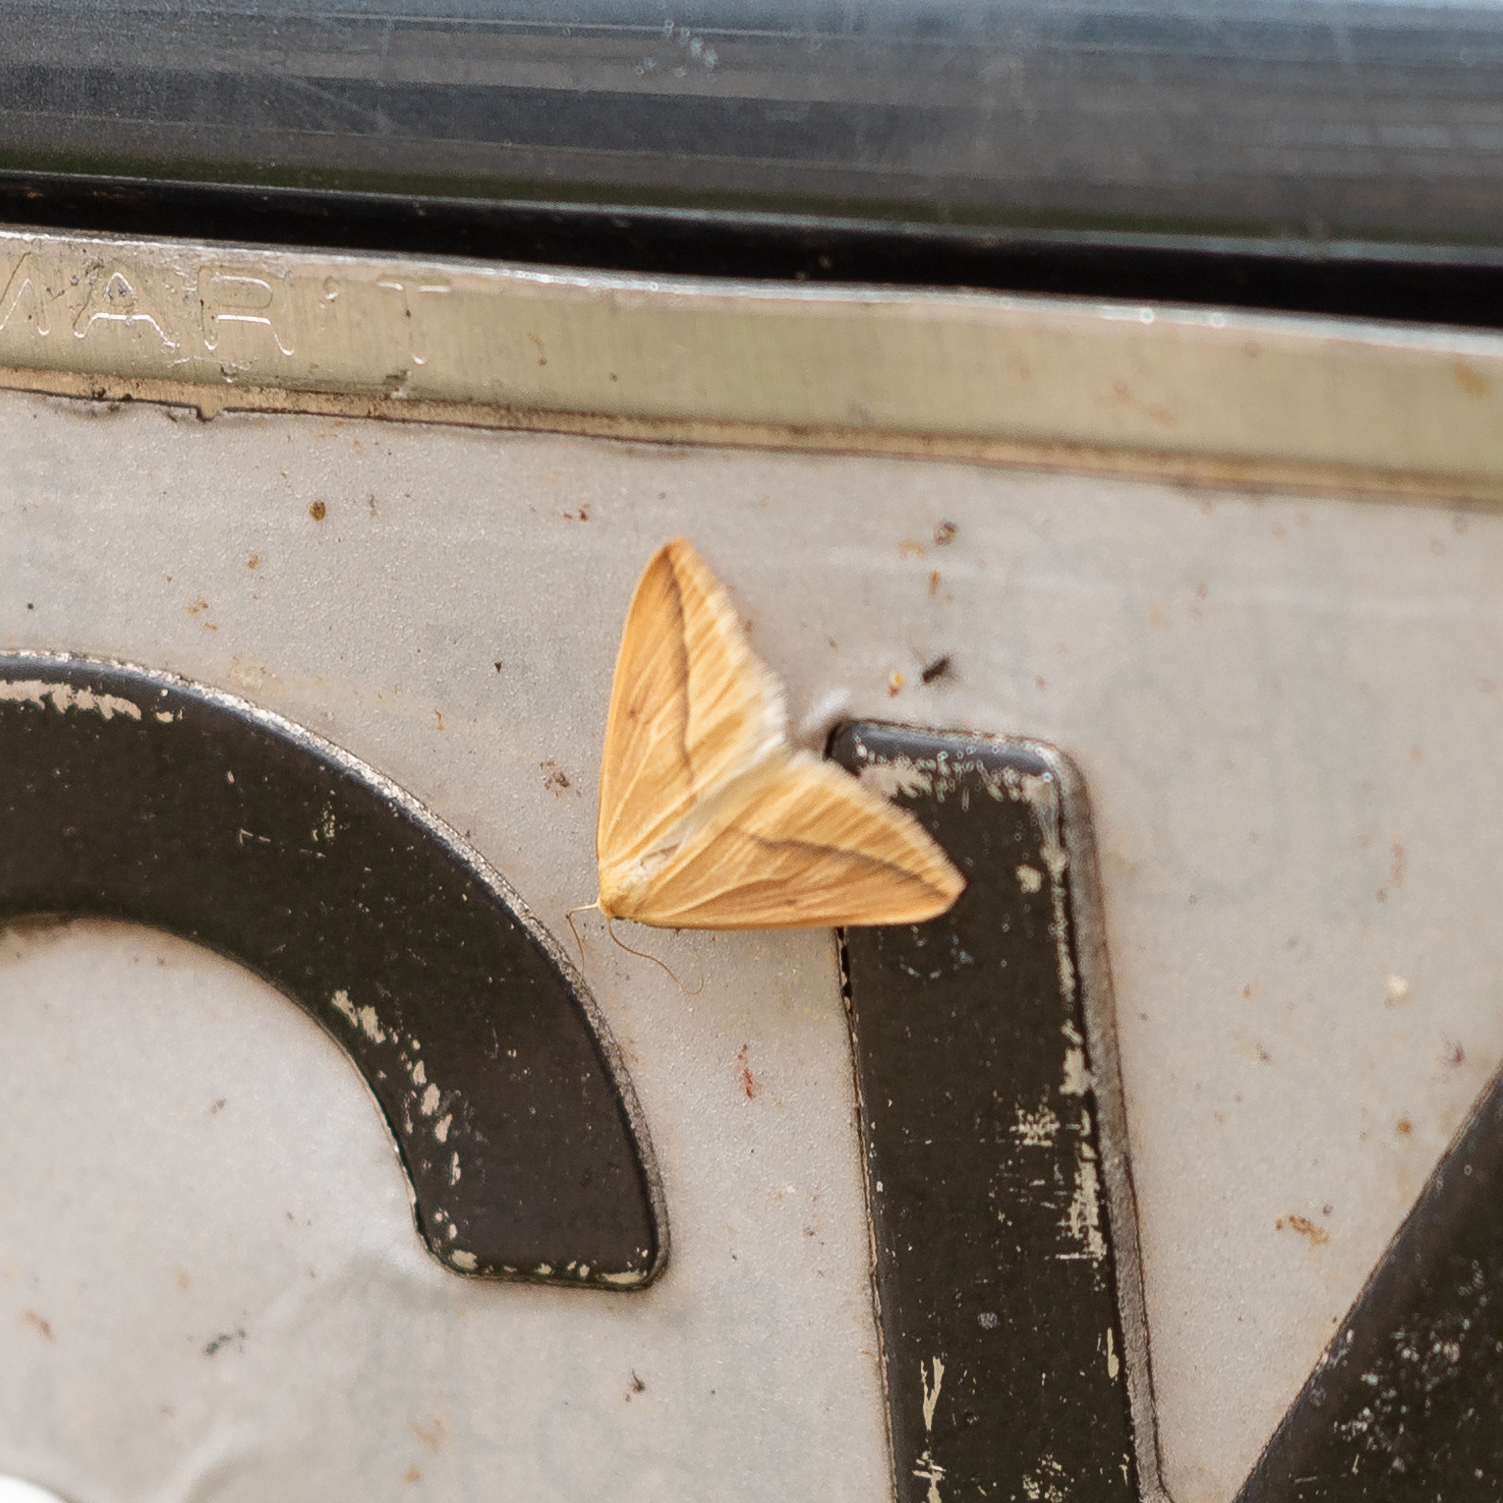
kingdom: Animalia
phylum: Arthropoda
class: Insecta
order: Lepidoptera
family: Geometridae
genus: Rhodometra
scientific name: Rhodometra sacraria
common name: Vestal
